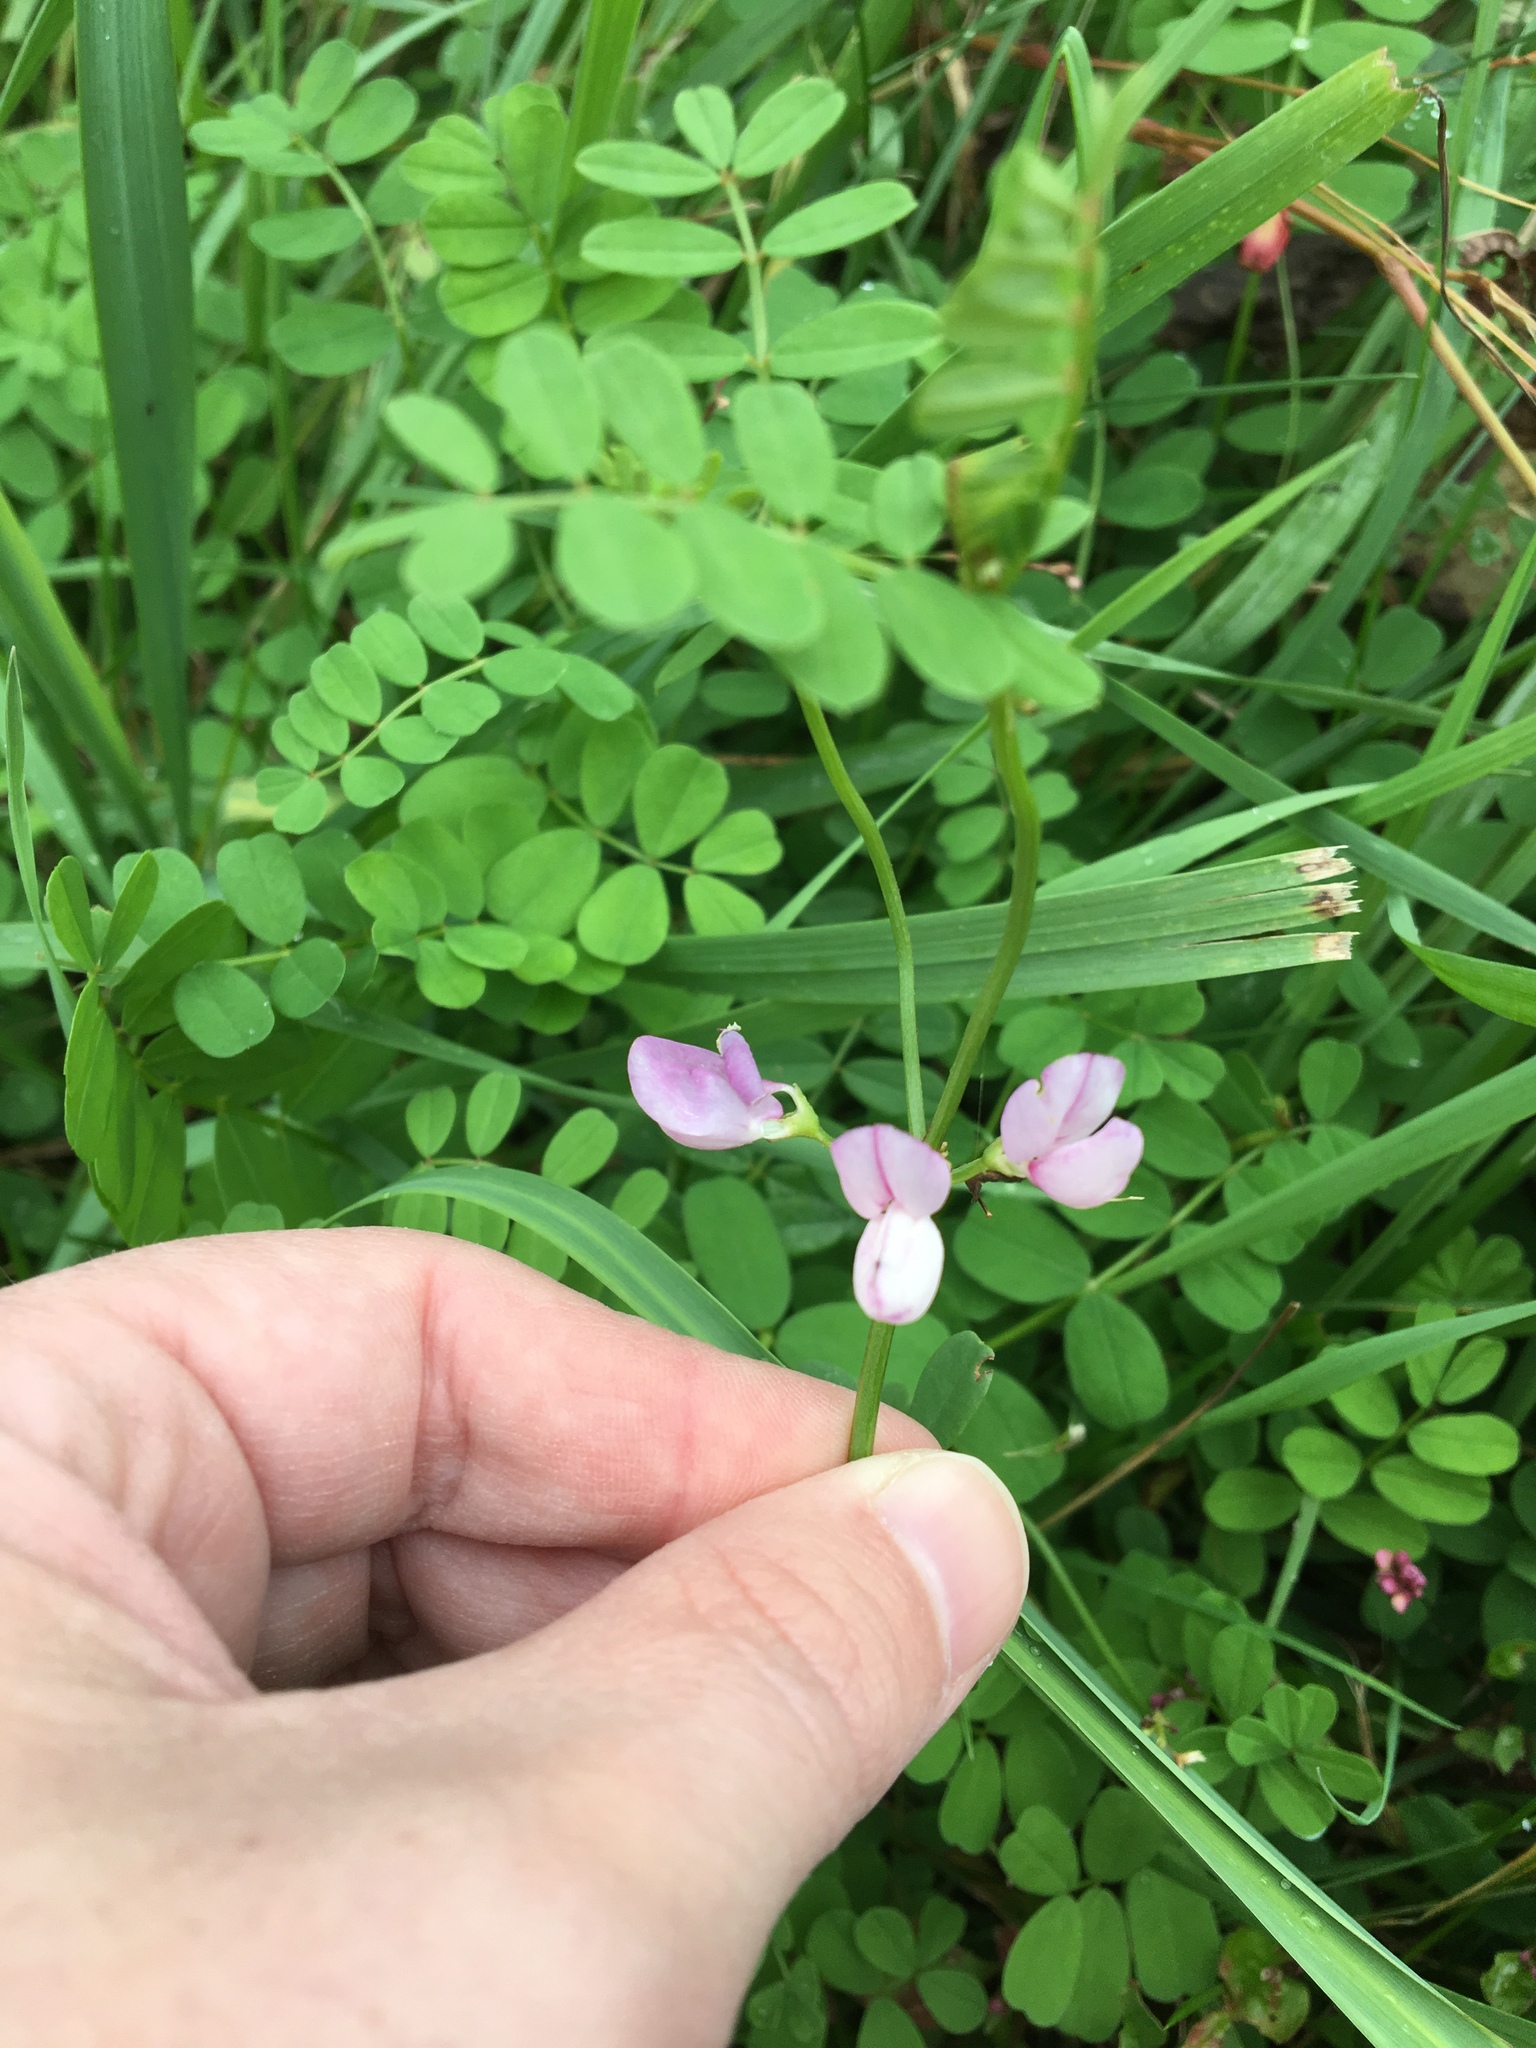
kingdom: Plantae
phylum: Tracheophyta
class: Magnoliopsida
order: Fabales
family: Fabaceae
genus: Coronilla
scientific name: Coronilla varia
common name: Crownvetch
